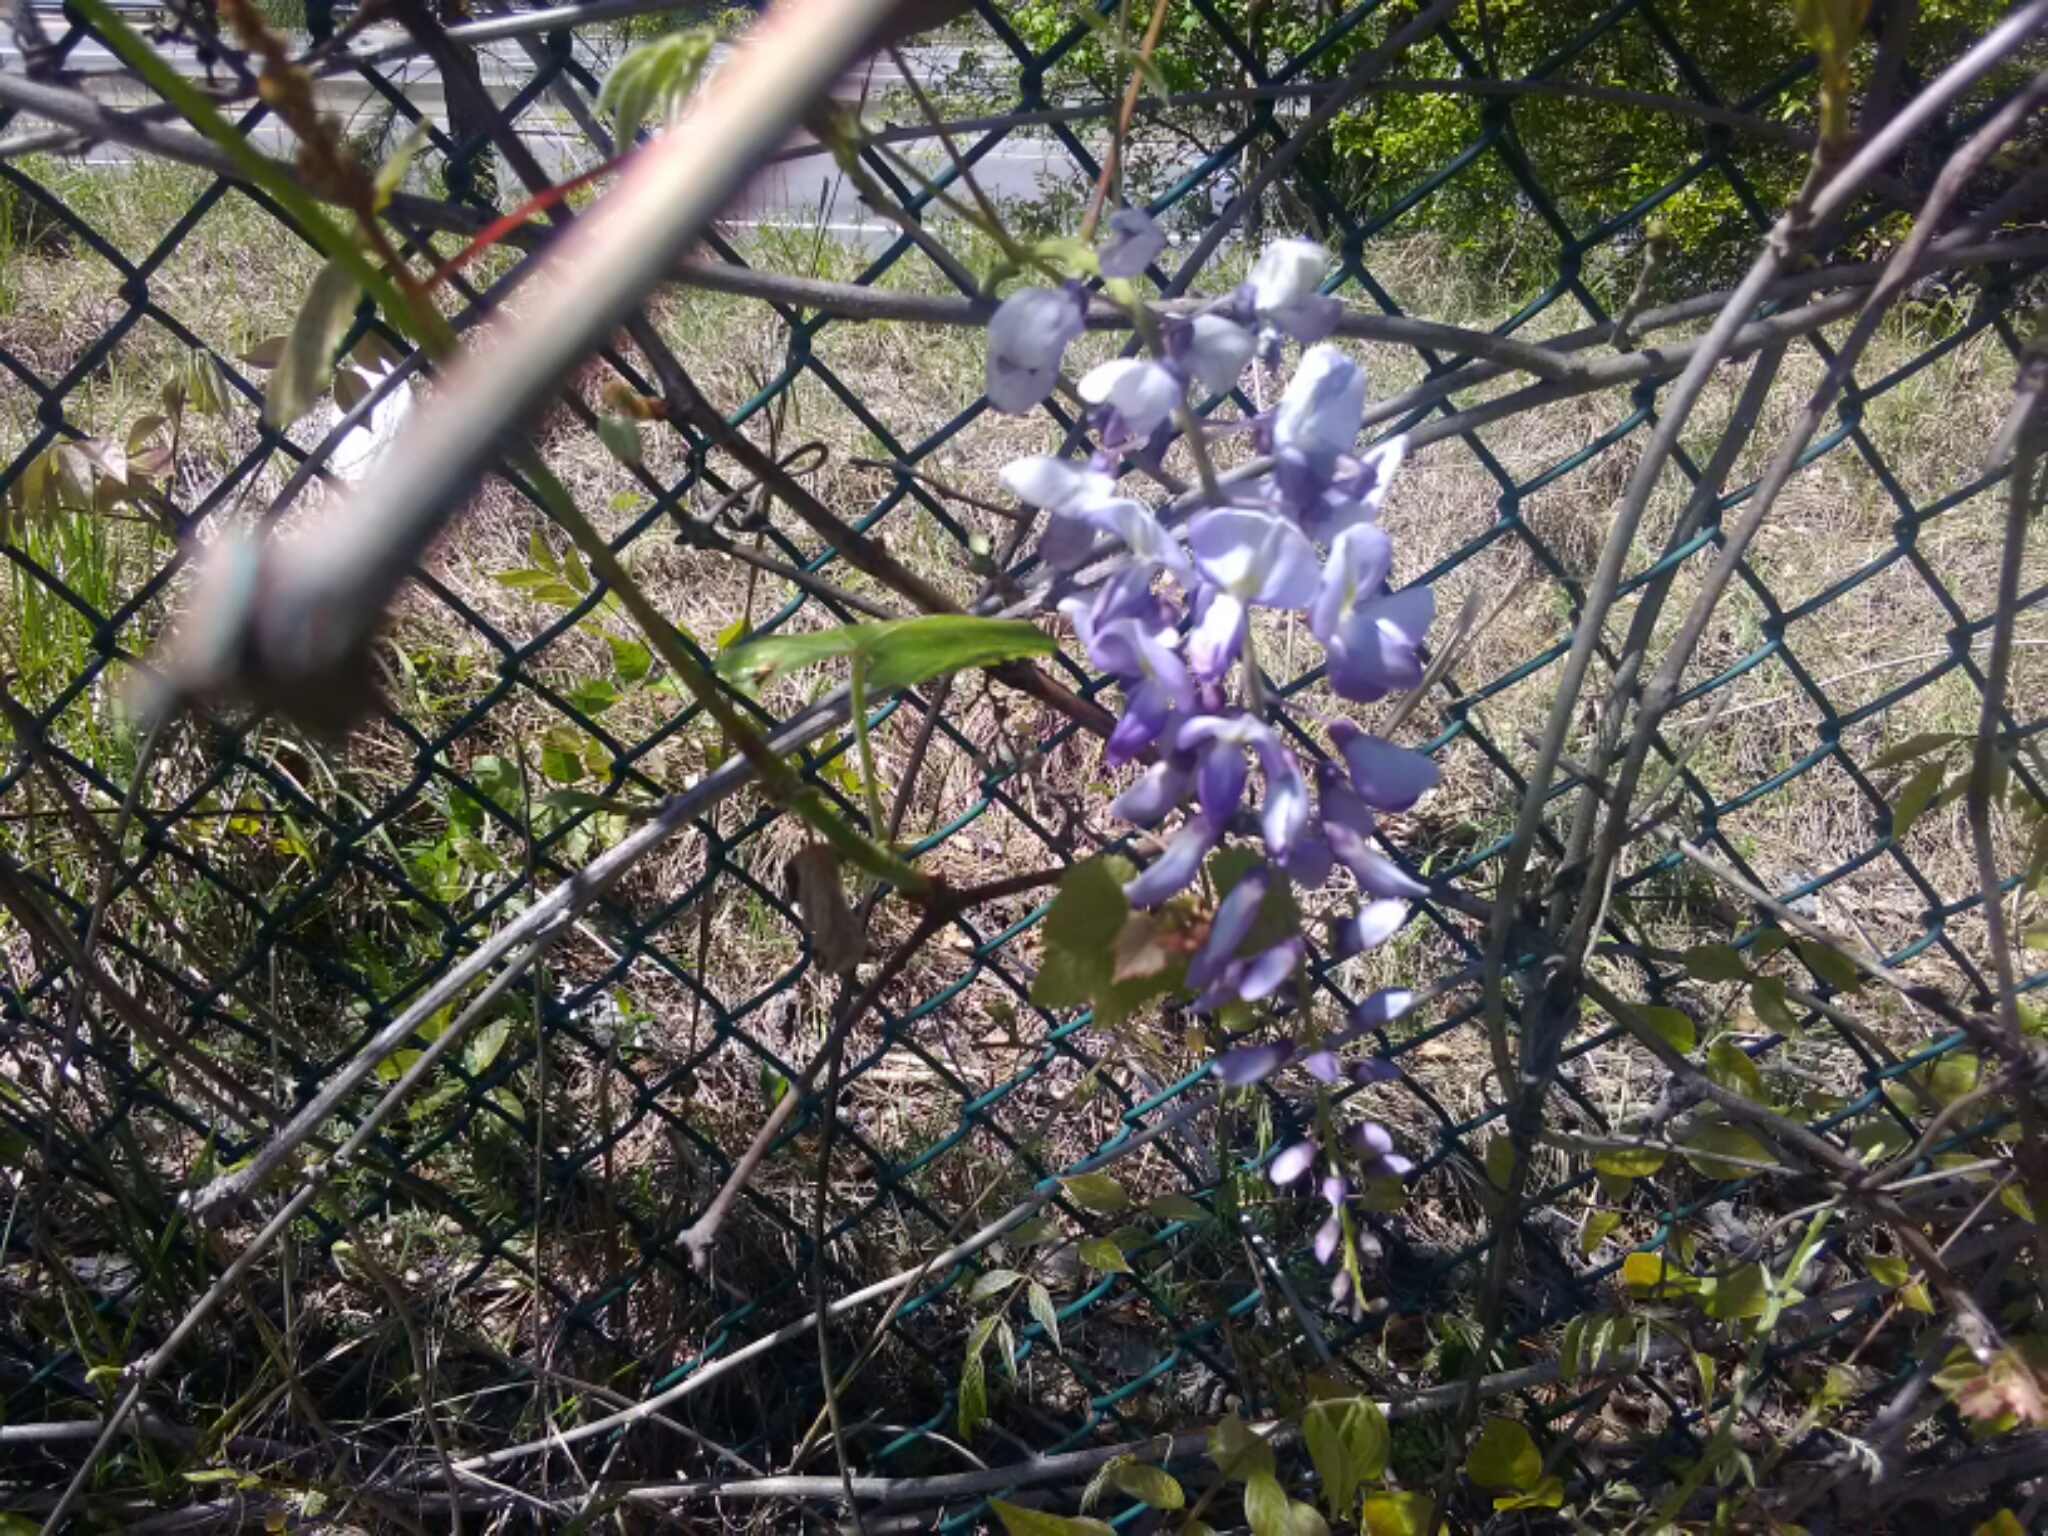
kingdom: Plantae
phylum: Tracheophyta
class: Magnoliopsida
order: Fabales
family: Fabaceae
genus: Wisteria
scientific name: Wisteria sinensis
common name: Chinese wisteria
